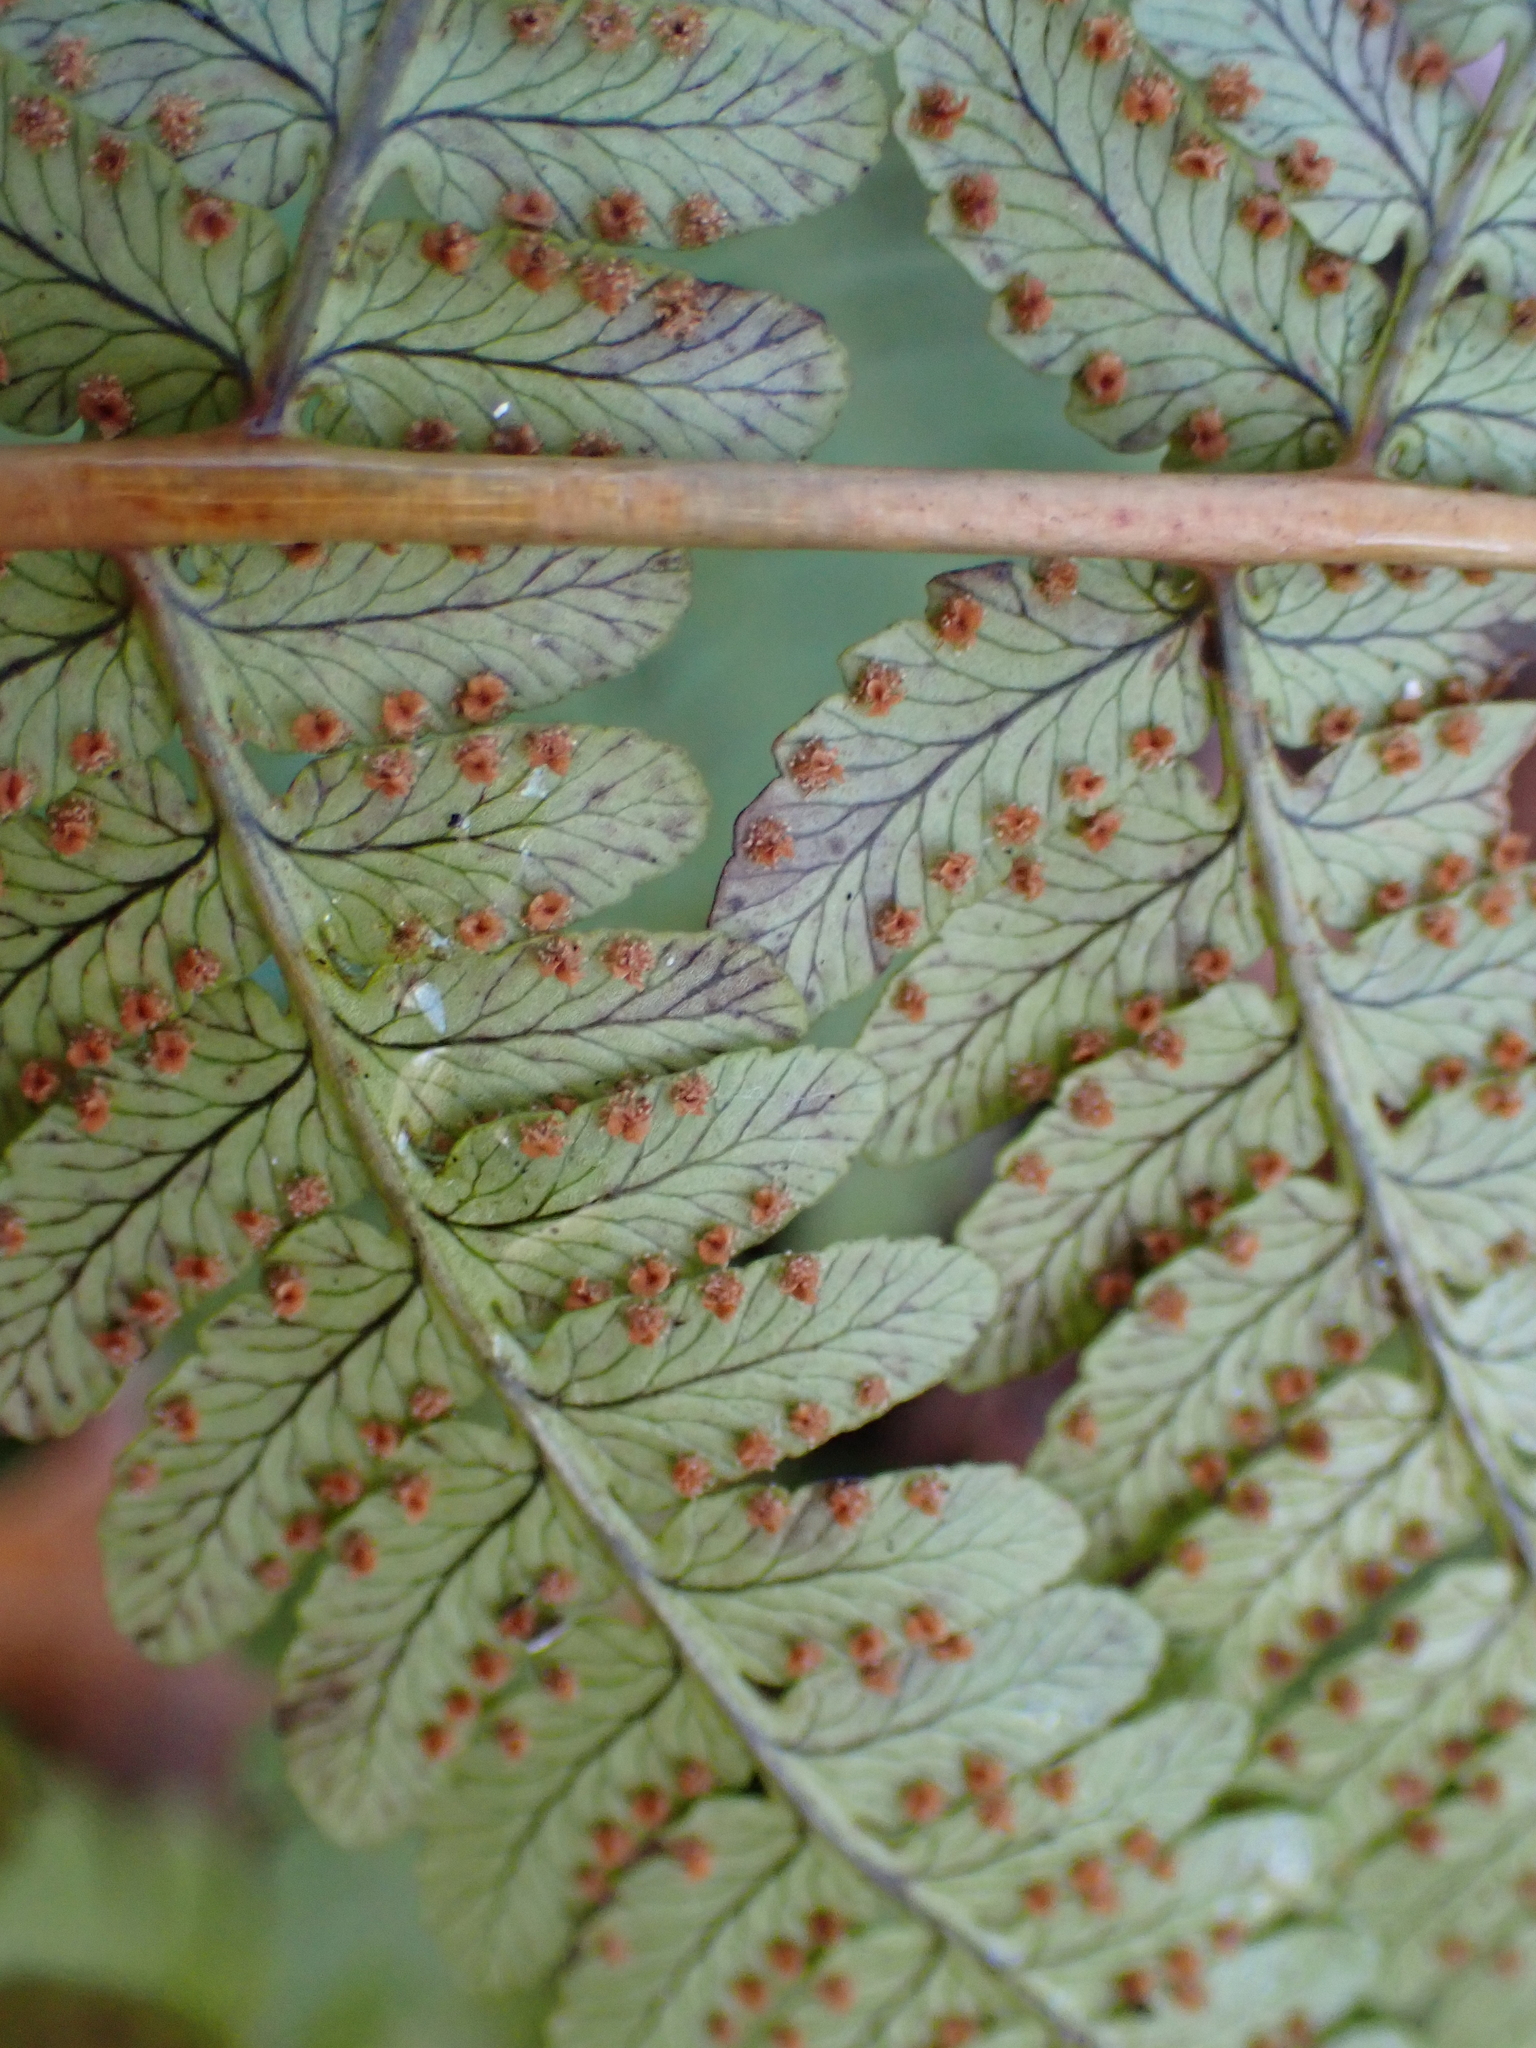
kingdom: Plantae
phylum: Tracheophyta
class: Polypodiopsida
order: Polypodiales
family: Dryopteridaceae
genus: Dryopteris
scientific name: Dryopteris marginalis
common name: Marginal wood fern
